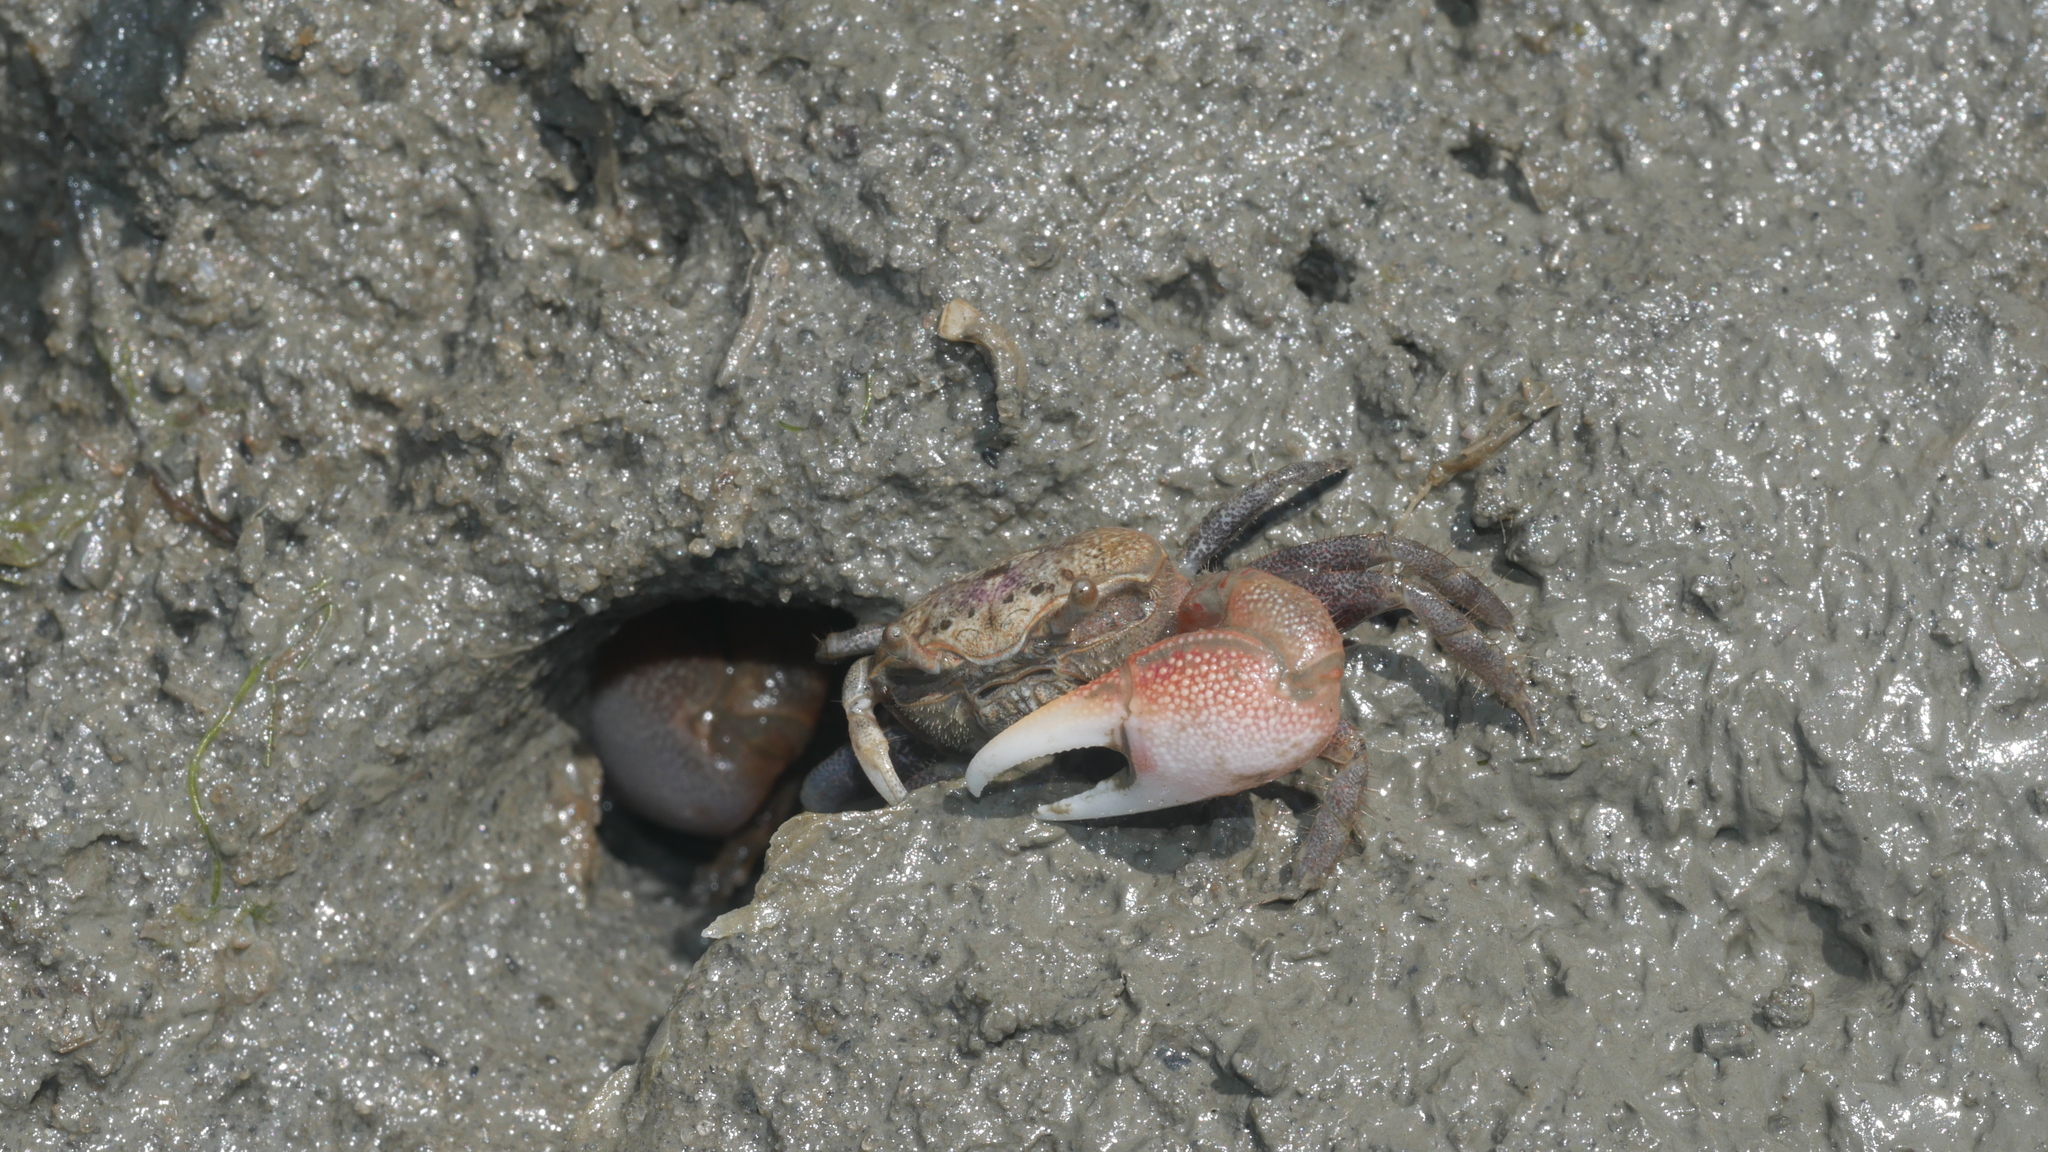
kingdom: Animalia
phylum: Arthropoda
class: Malacostraca
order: Decapoda
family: Ocypodidae
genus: Leptuca
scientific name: Leptuca pugilator
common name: Atlantic sand fiddler crab
